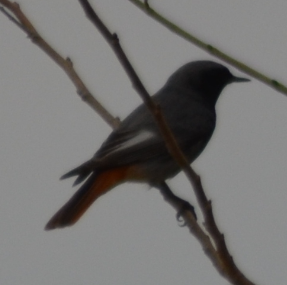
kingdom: Animalia
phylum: Chordata
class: Aves
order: Passeriformes
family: Muscicapidae
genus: Phoenicurus
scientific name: Phoenicurus ochruros
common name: Black redstart
